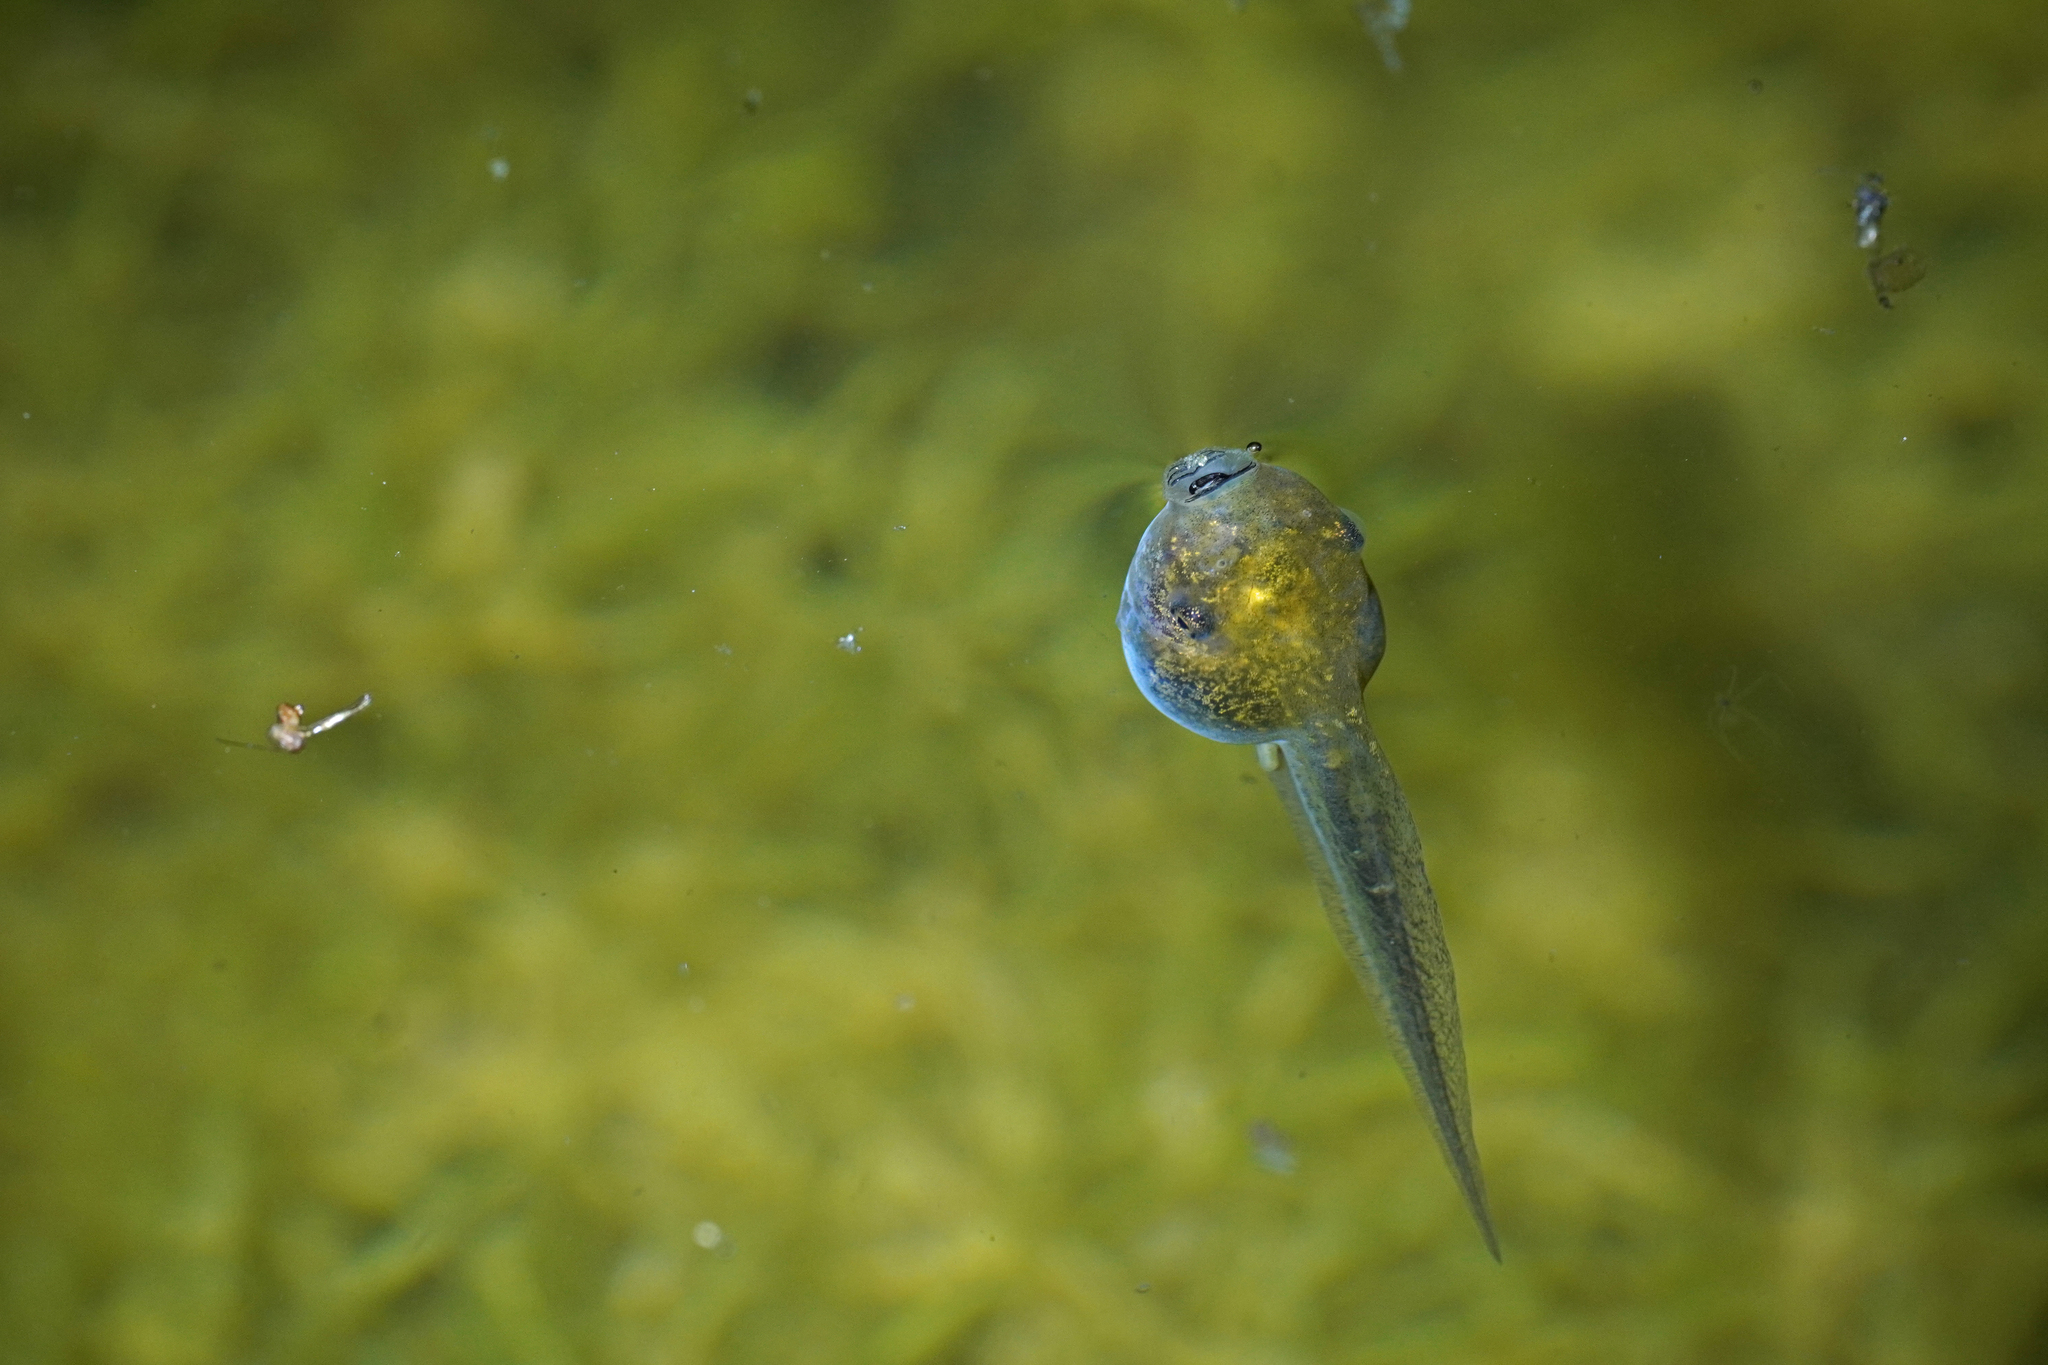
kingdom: Animalia
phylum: Chordata
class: Amphibia
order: Anura
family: Hylidae
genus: Hyla
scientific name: Hyla sarda
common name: Sardinian tree frog
